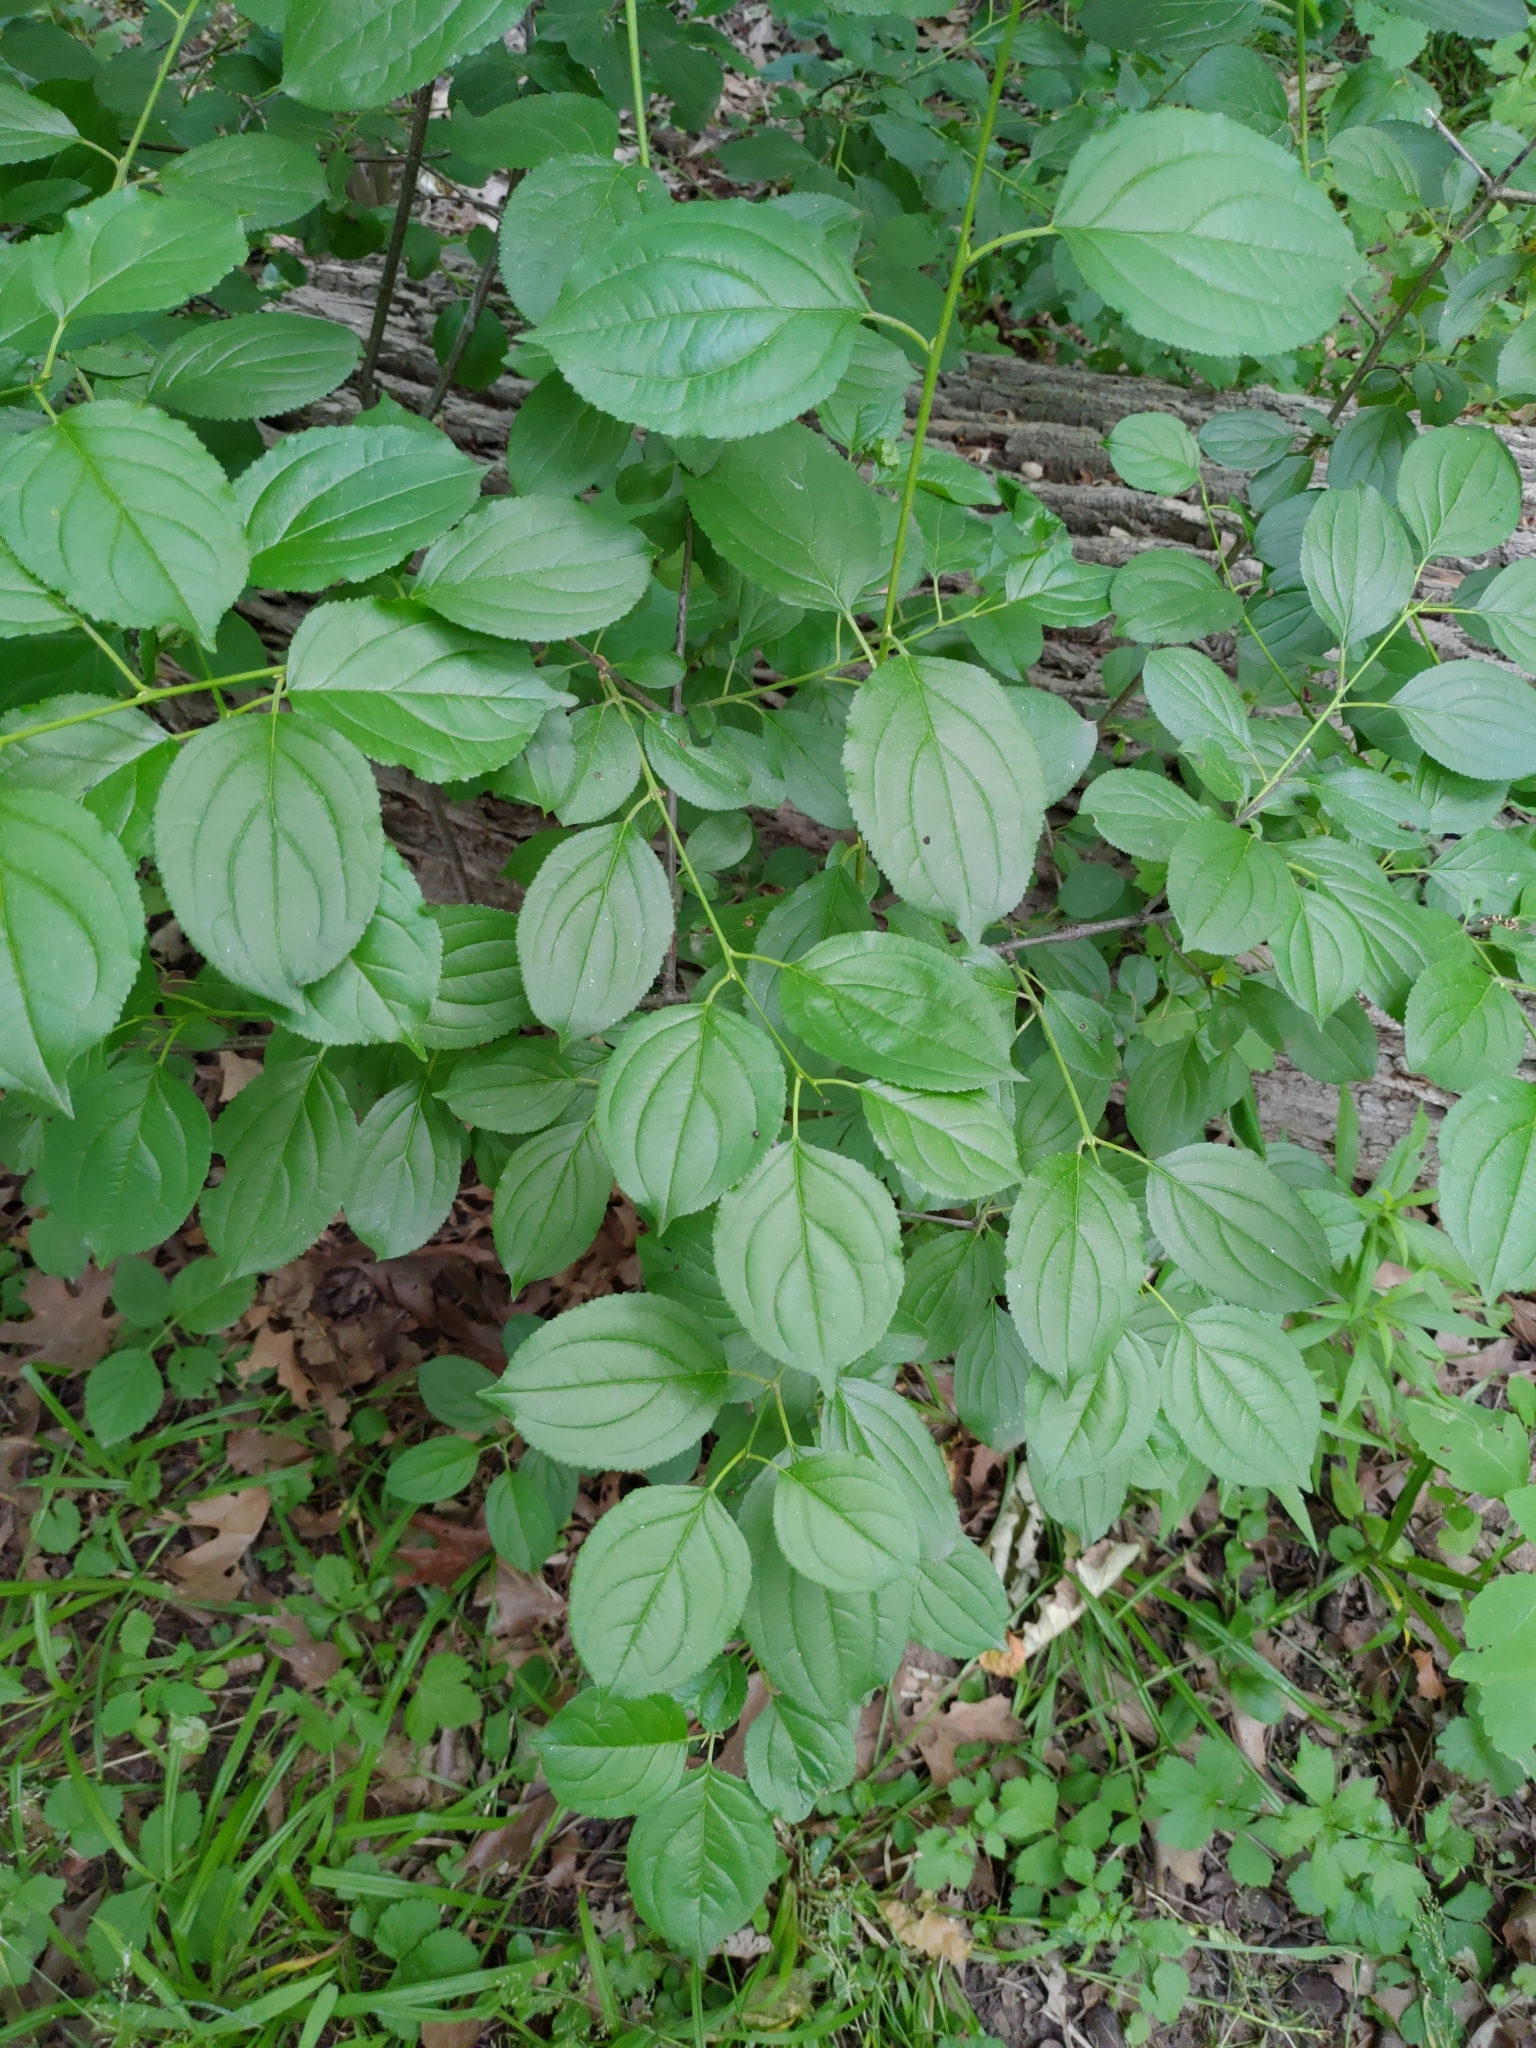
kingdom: Plantae
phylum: Tracheophyta
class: Magnoliopsida
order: Rosales
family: Rhamnaceae
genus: Rhamnus
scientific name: Rhamnus cathartica
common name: Common buckthorn
